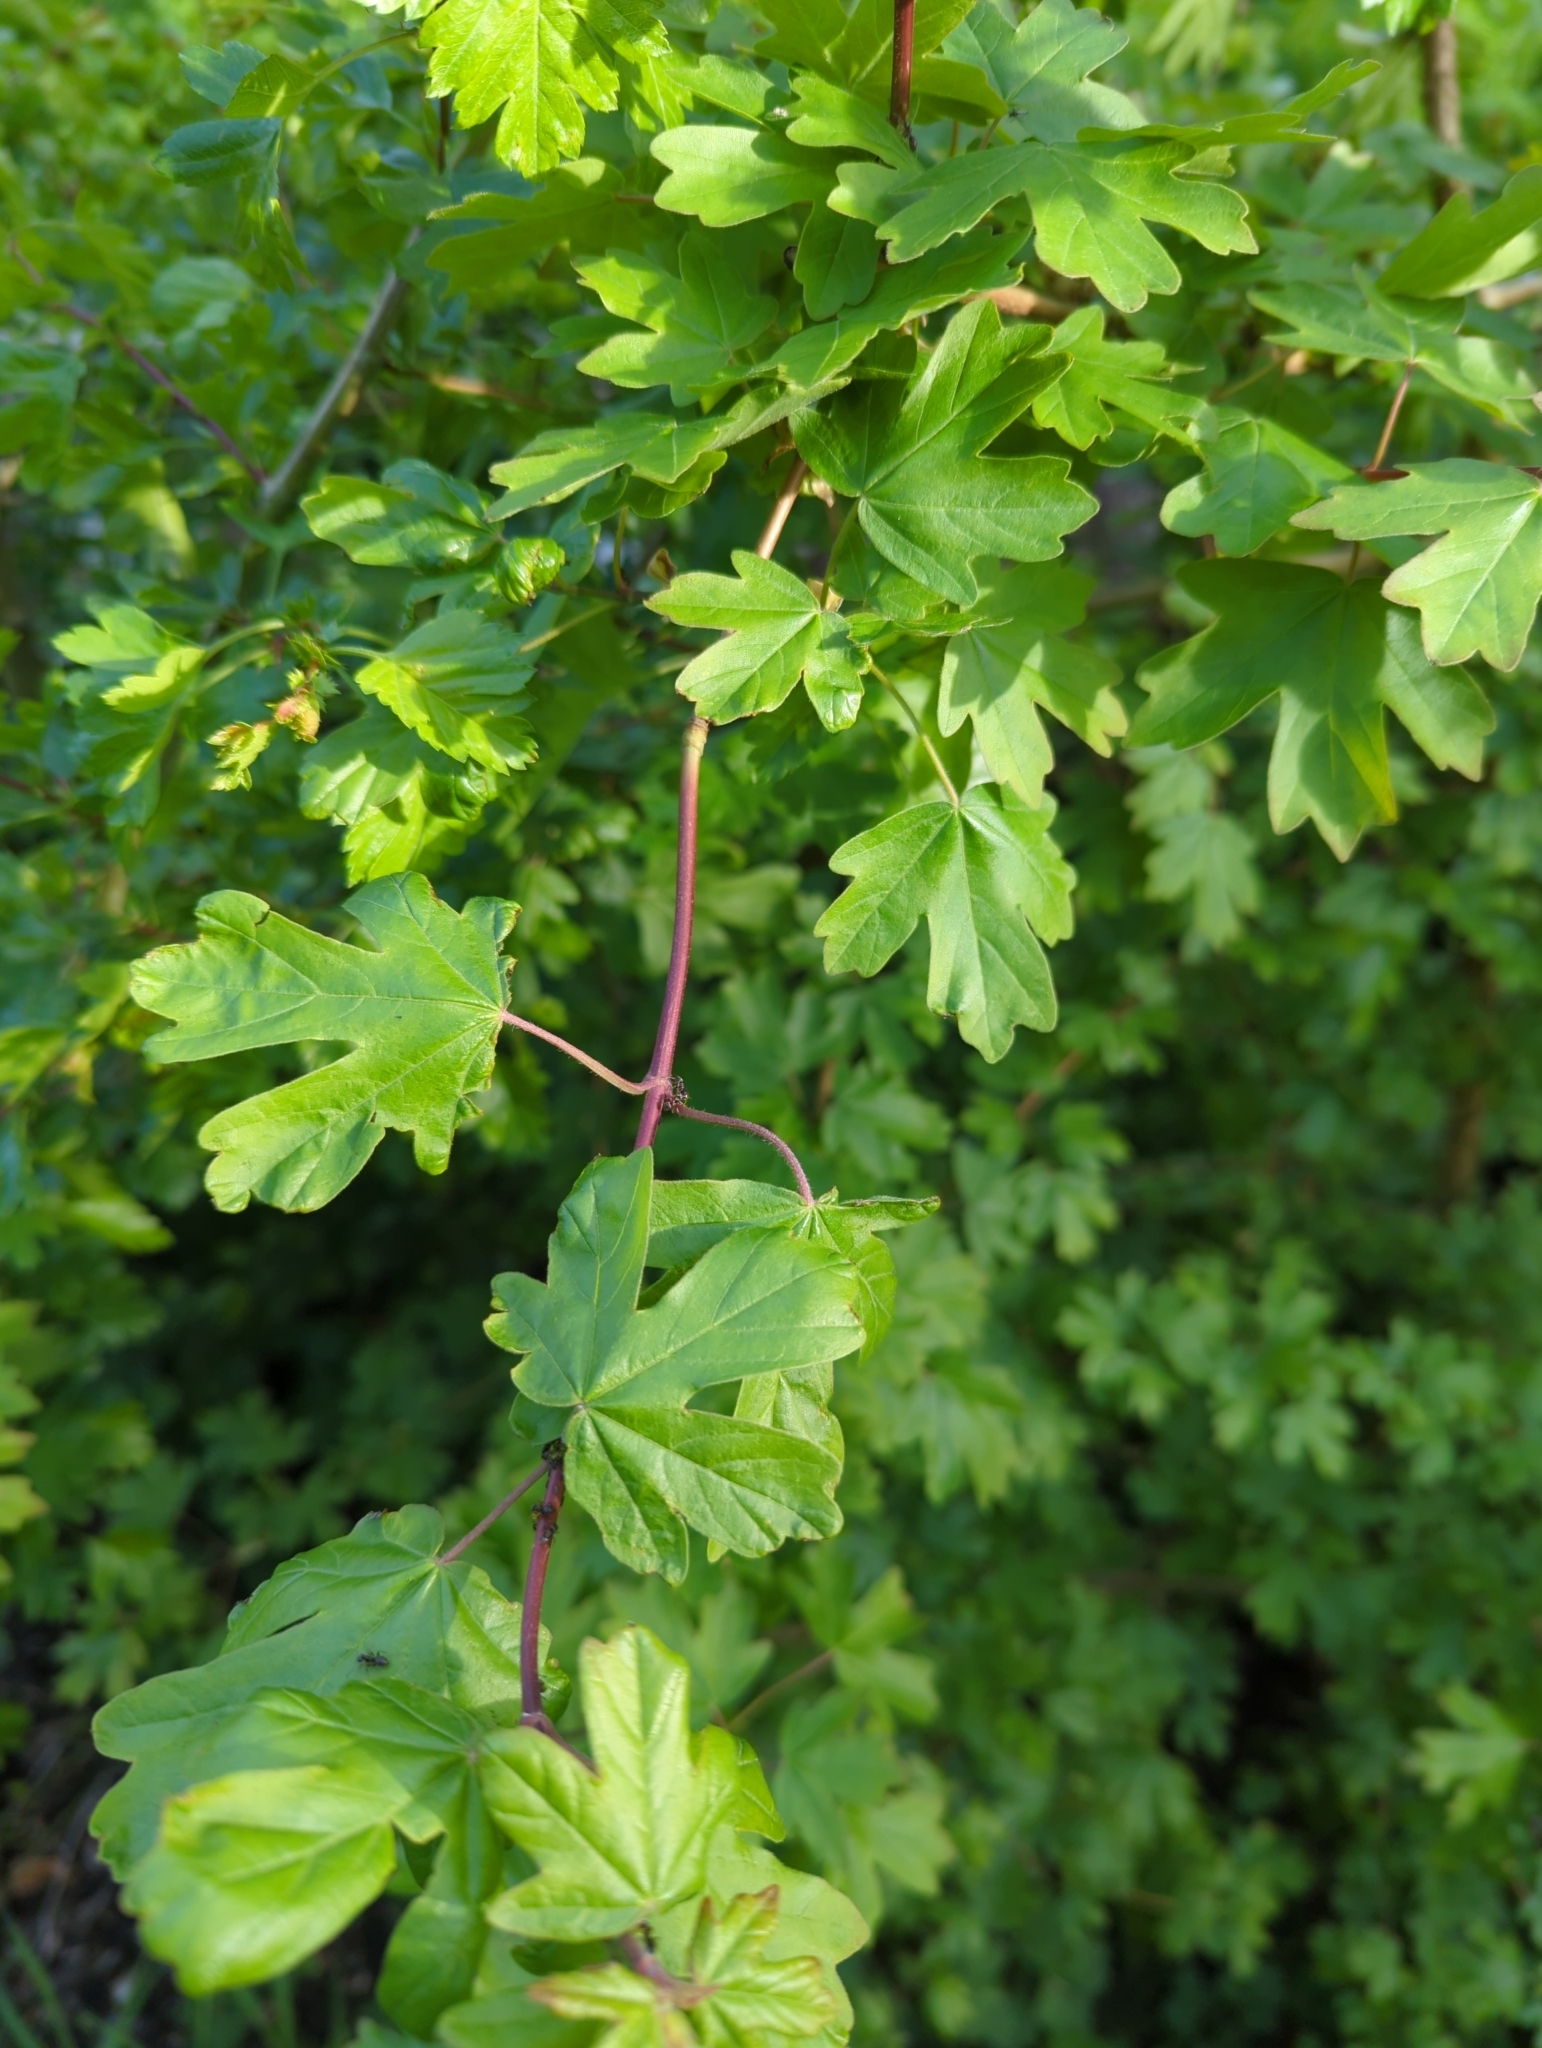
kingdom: Plantae
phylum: Tracheophyta
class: Magnoliopsida
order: Sapindales
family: Sapindaceae
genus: Acer
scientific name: Acer campestre
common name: Field maple
